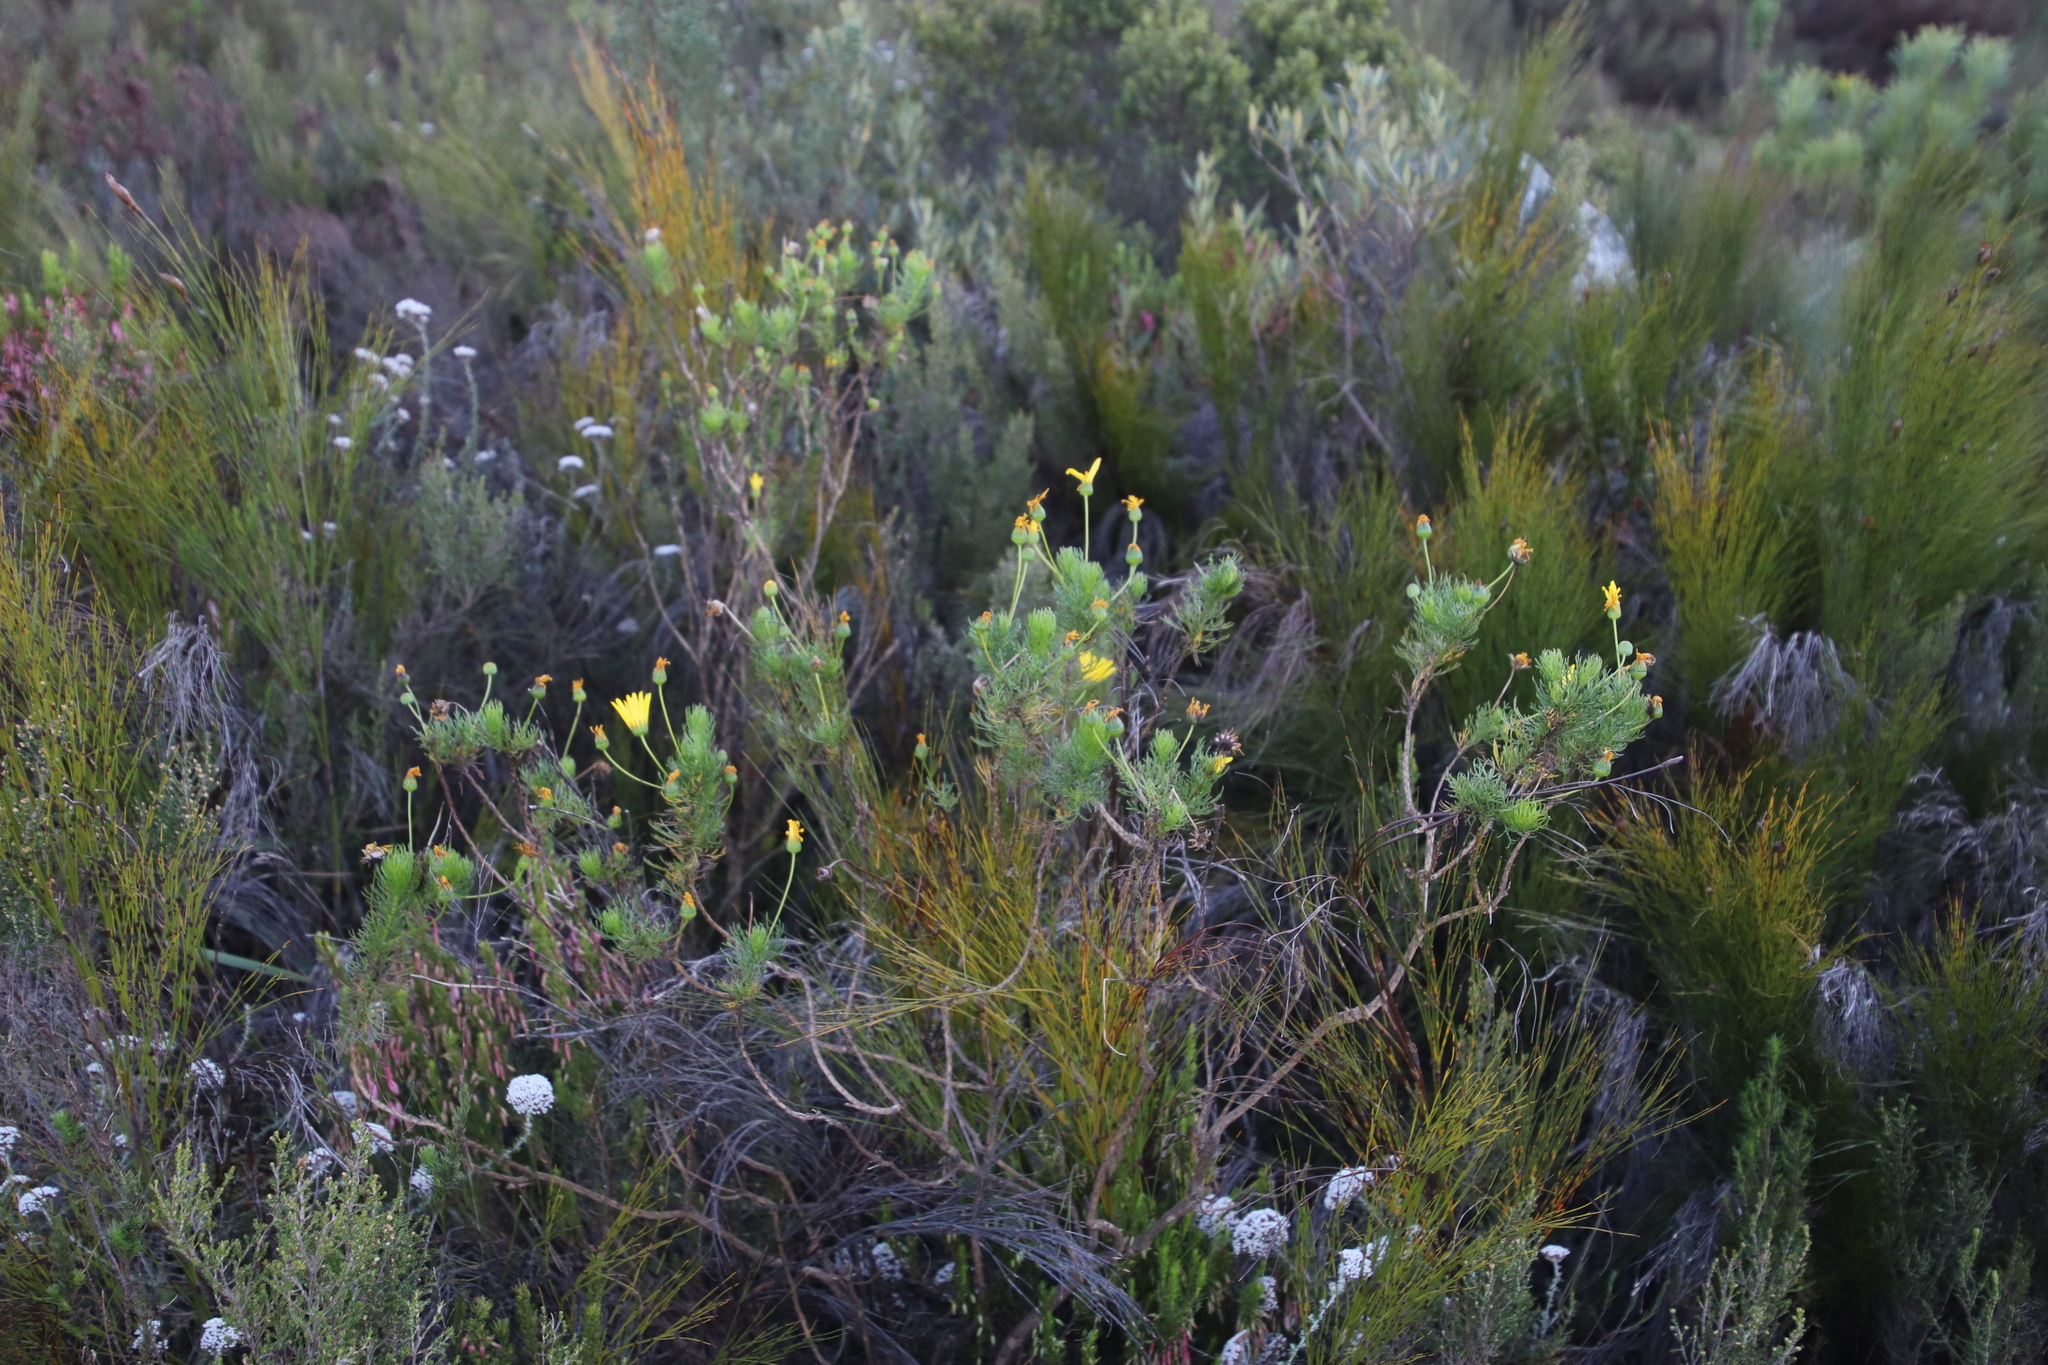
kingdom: Plantae
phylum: Tracheophyta
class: Magnoliopsida
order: Asterales
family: Asteraceae
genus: Euryops
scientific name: Euryops abrotanifolius
